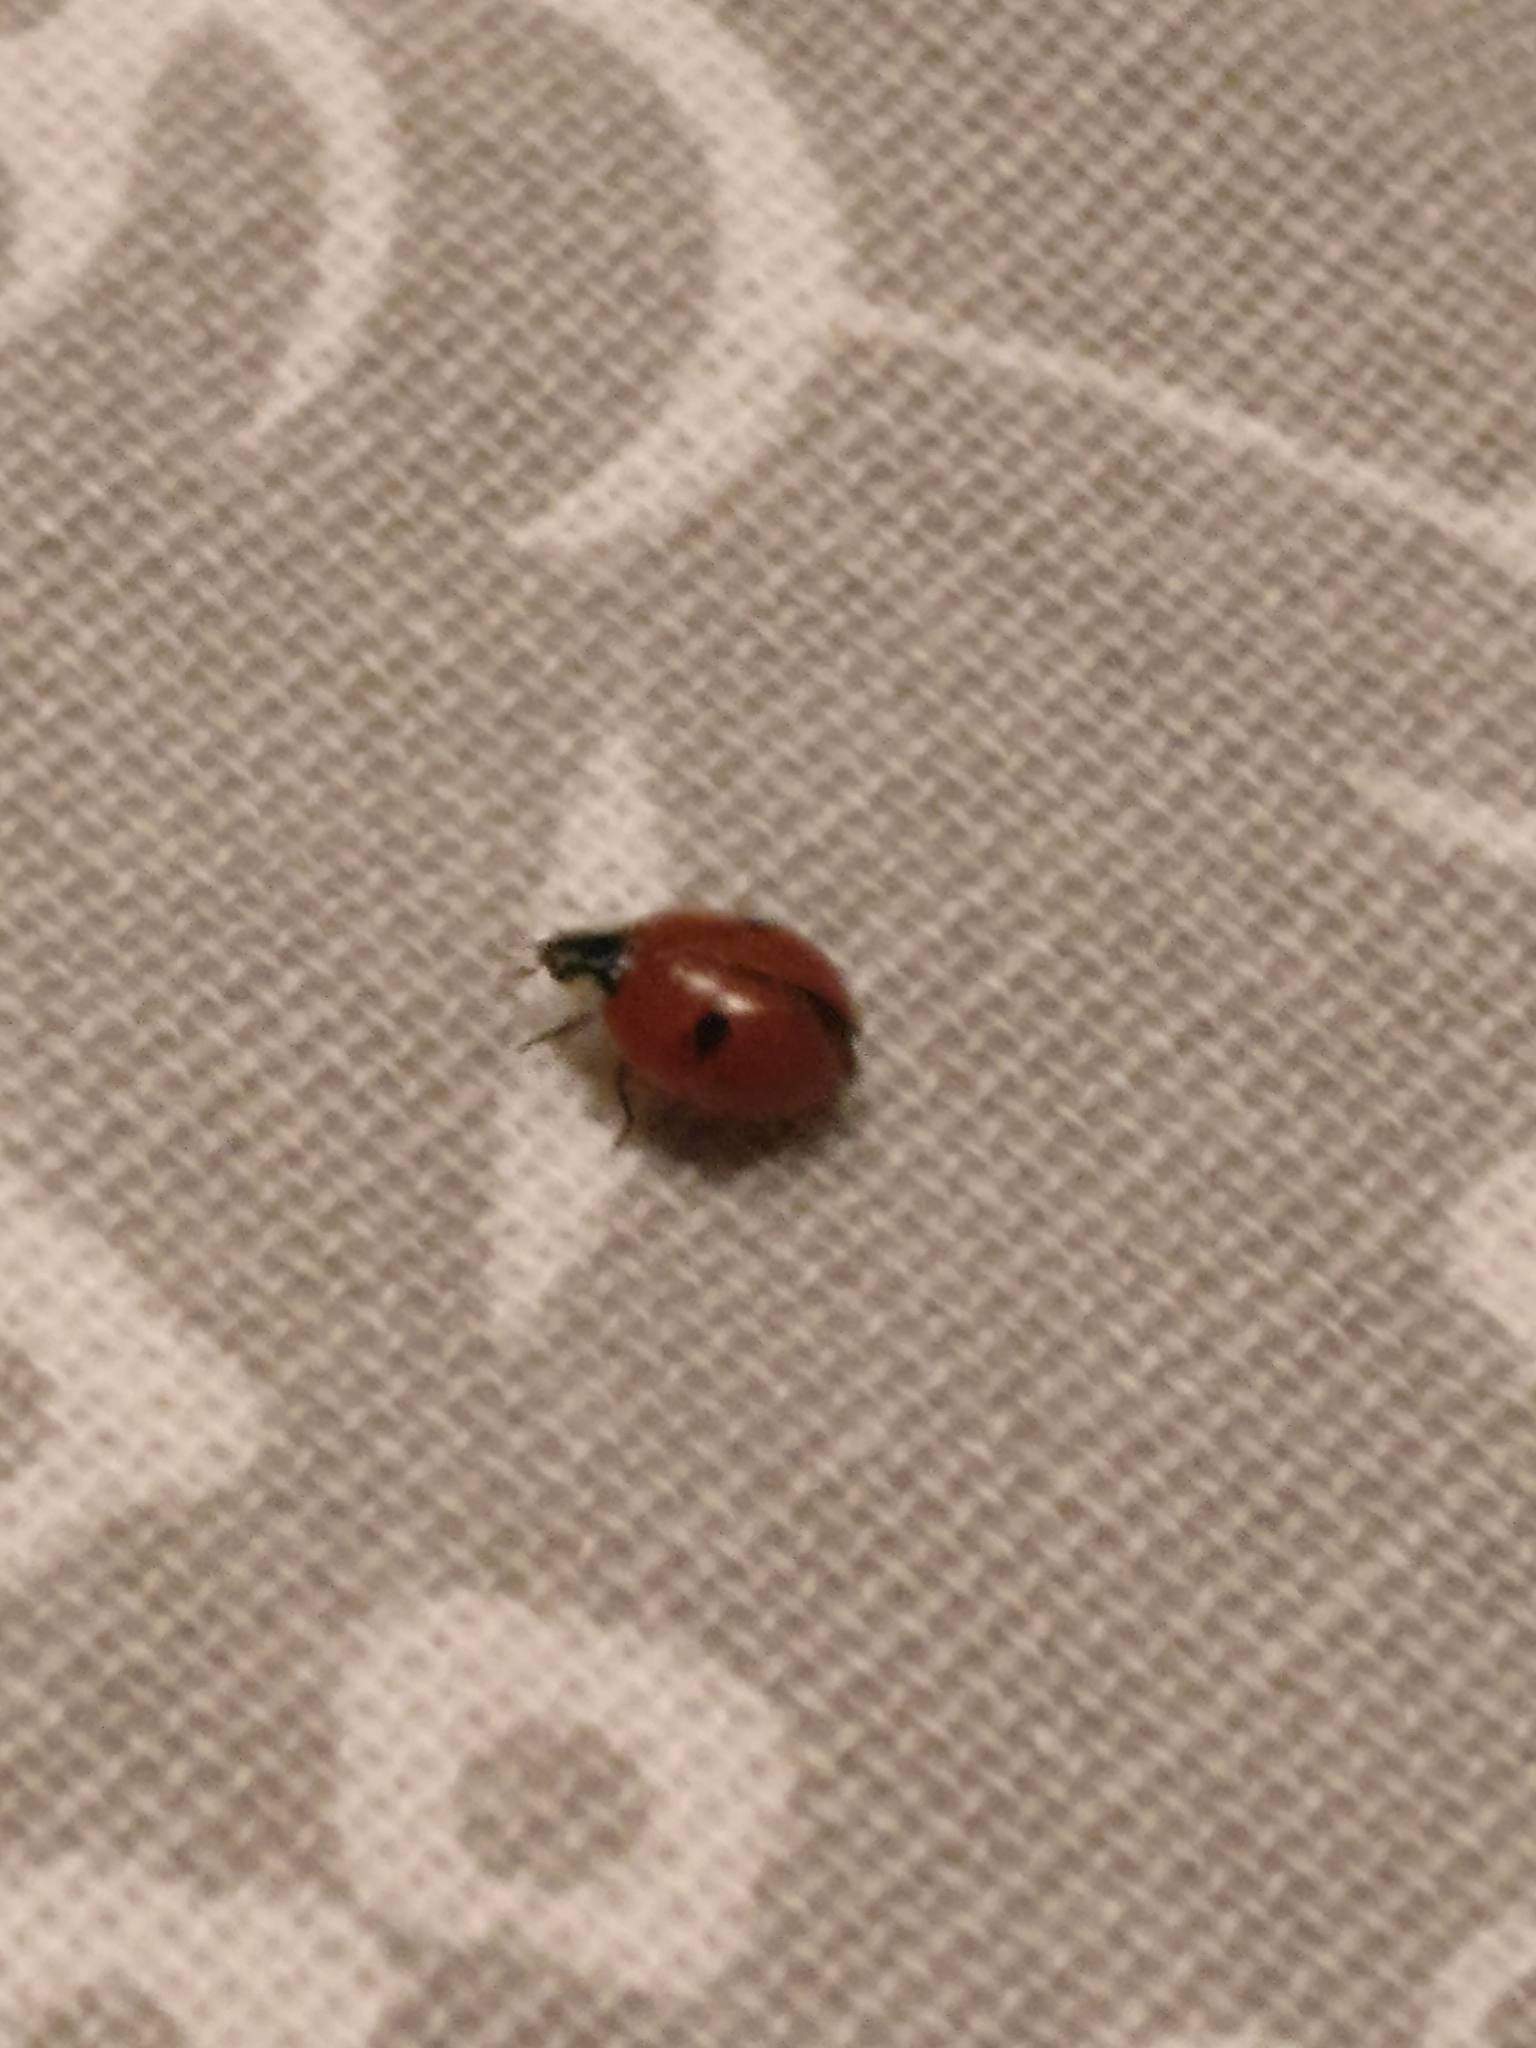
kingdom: Animalia
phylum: Arthropoda
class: Insecta
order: Coleoptera
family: Coccinellidae
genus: Adalia
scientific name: Adalia bipunctata
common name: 2-spot ladybird
